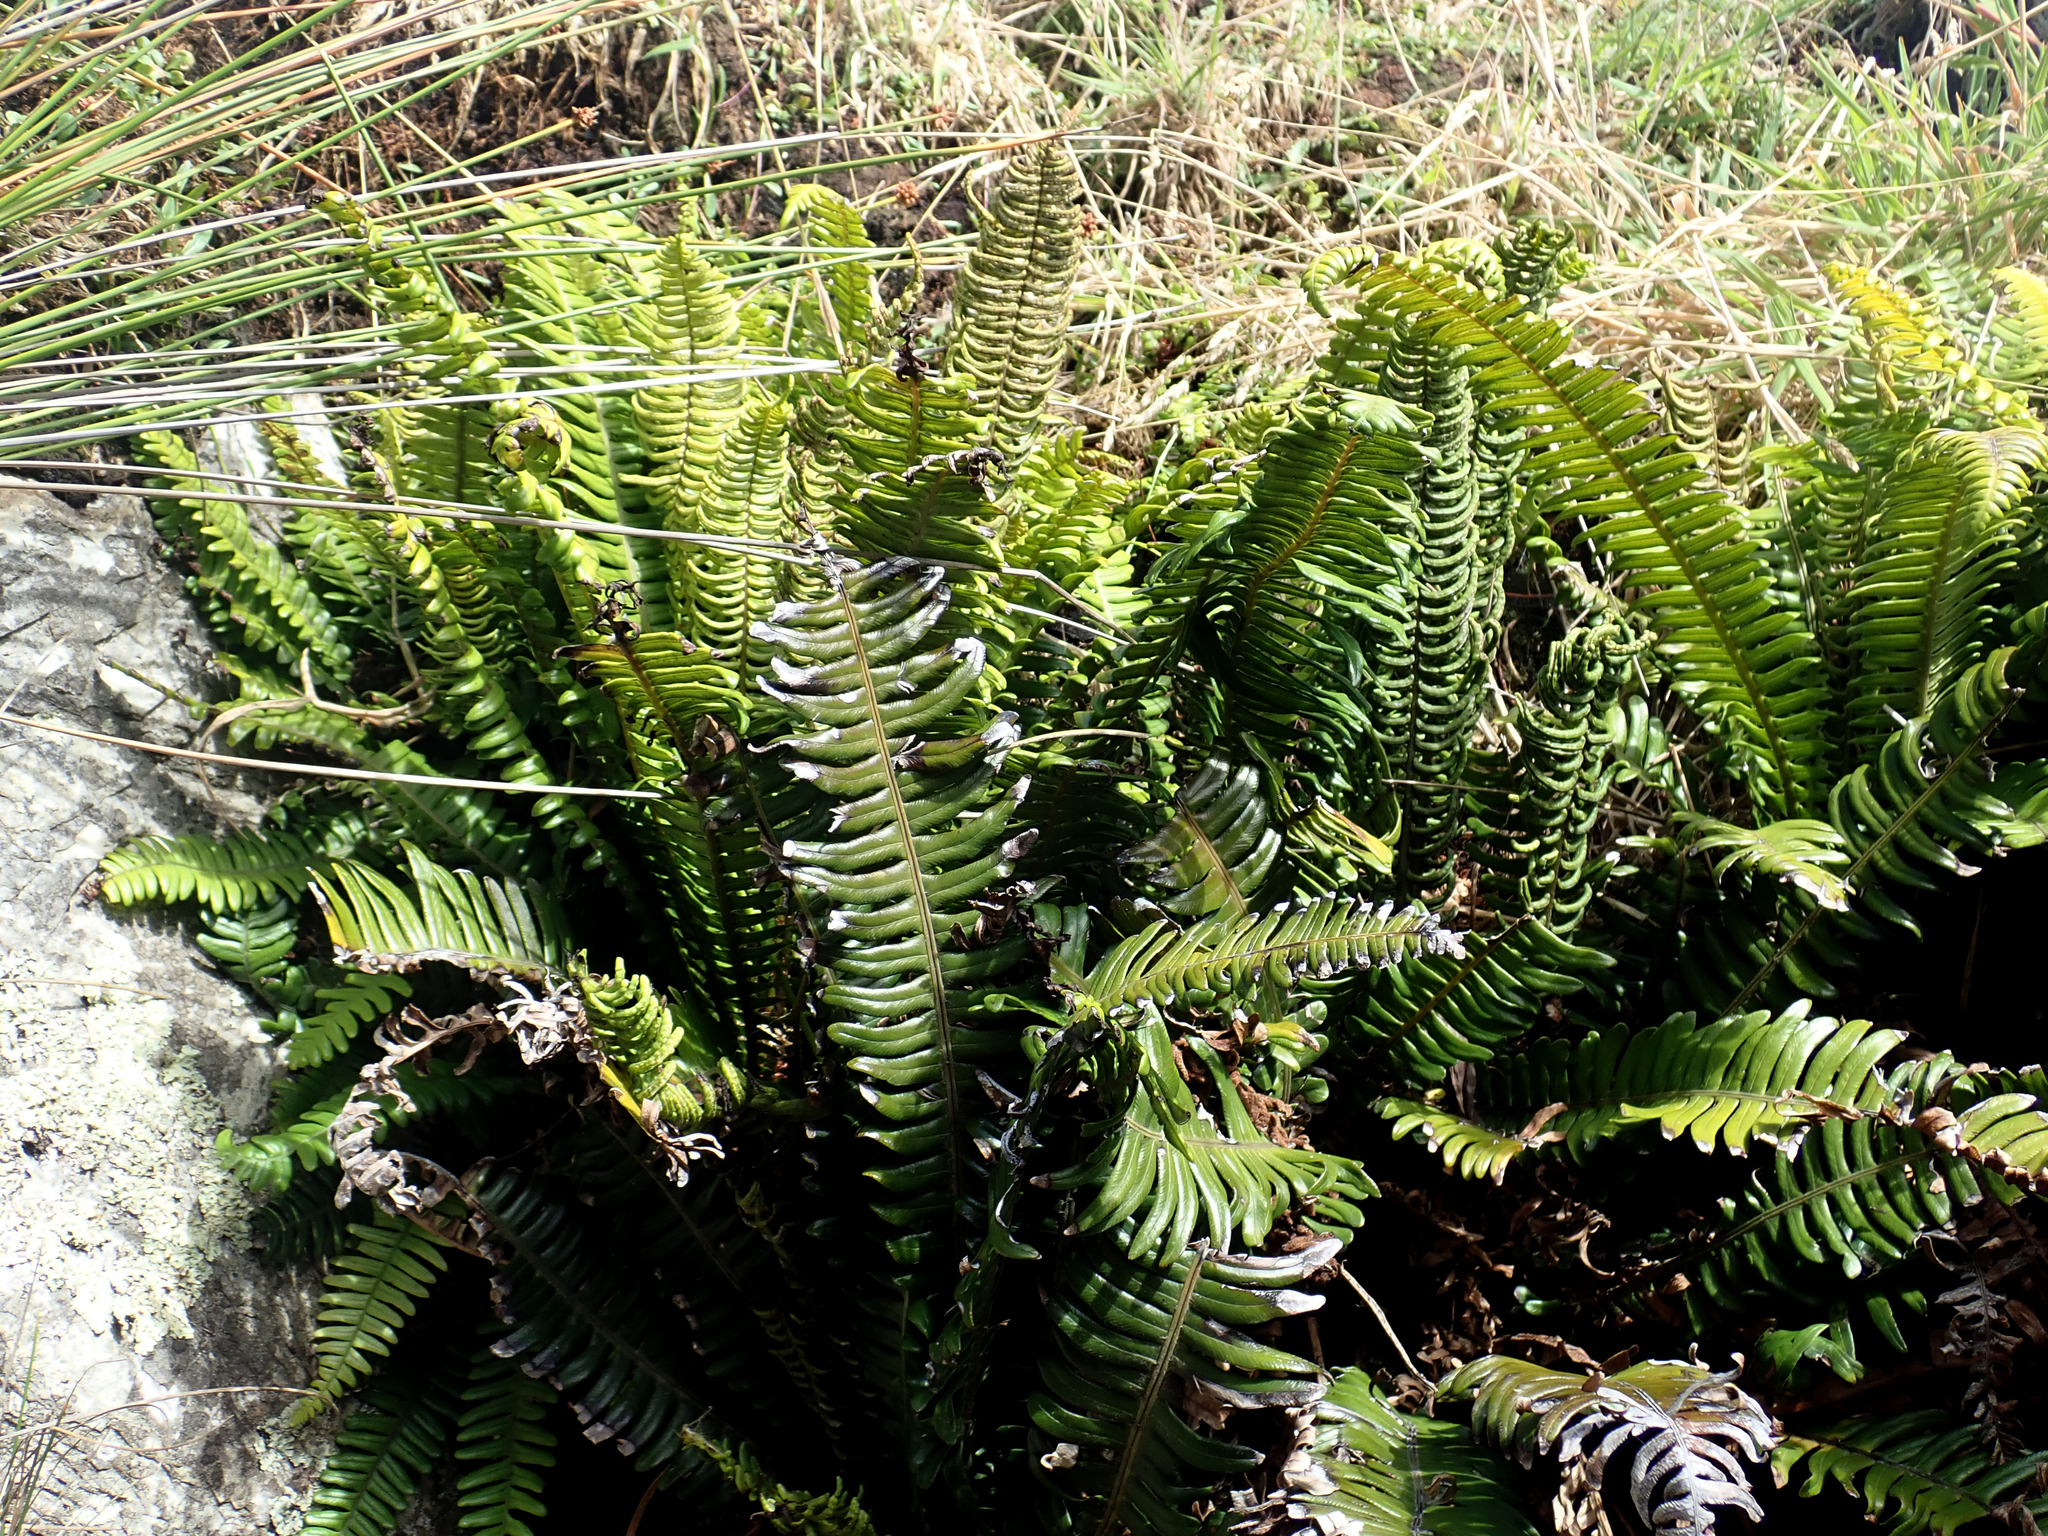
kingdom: Plantae
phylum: Tracheophyta
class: Polypodiopsida
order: Polypodiales
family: Blechnaceae
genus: Austroblechnum
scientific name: Austroblechnum durum
